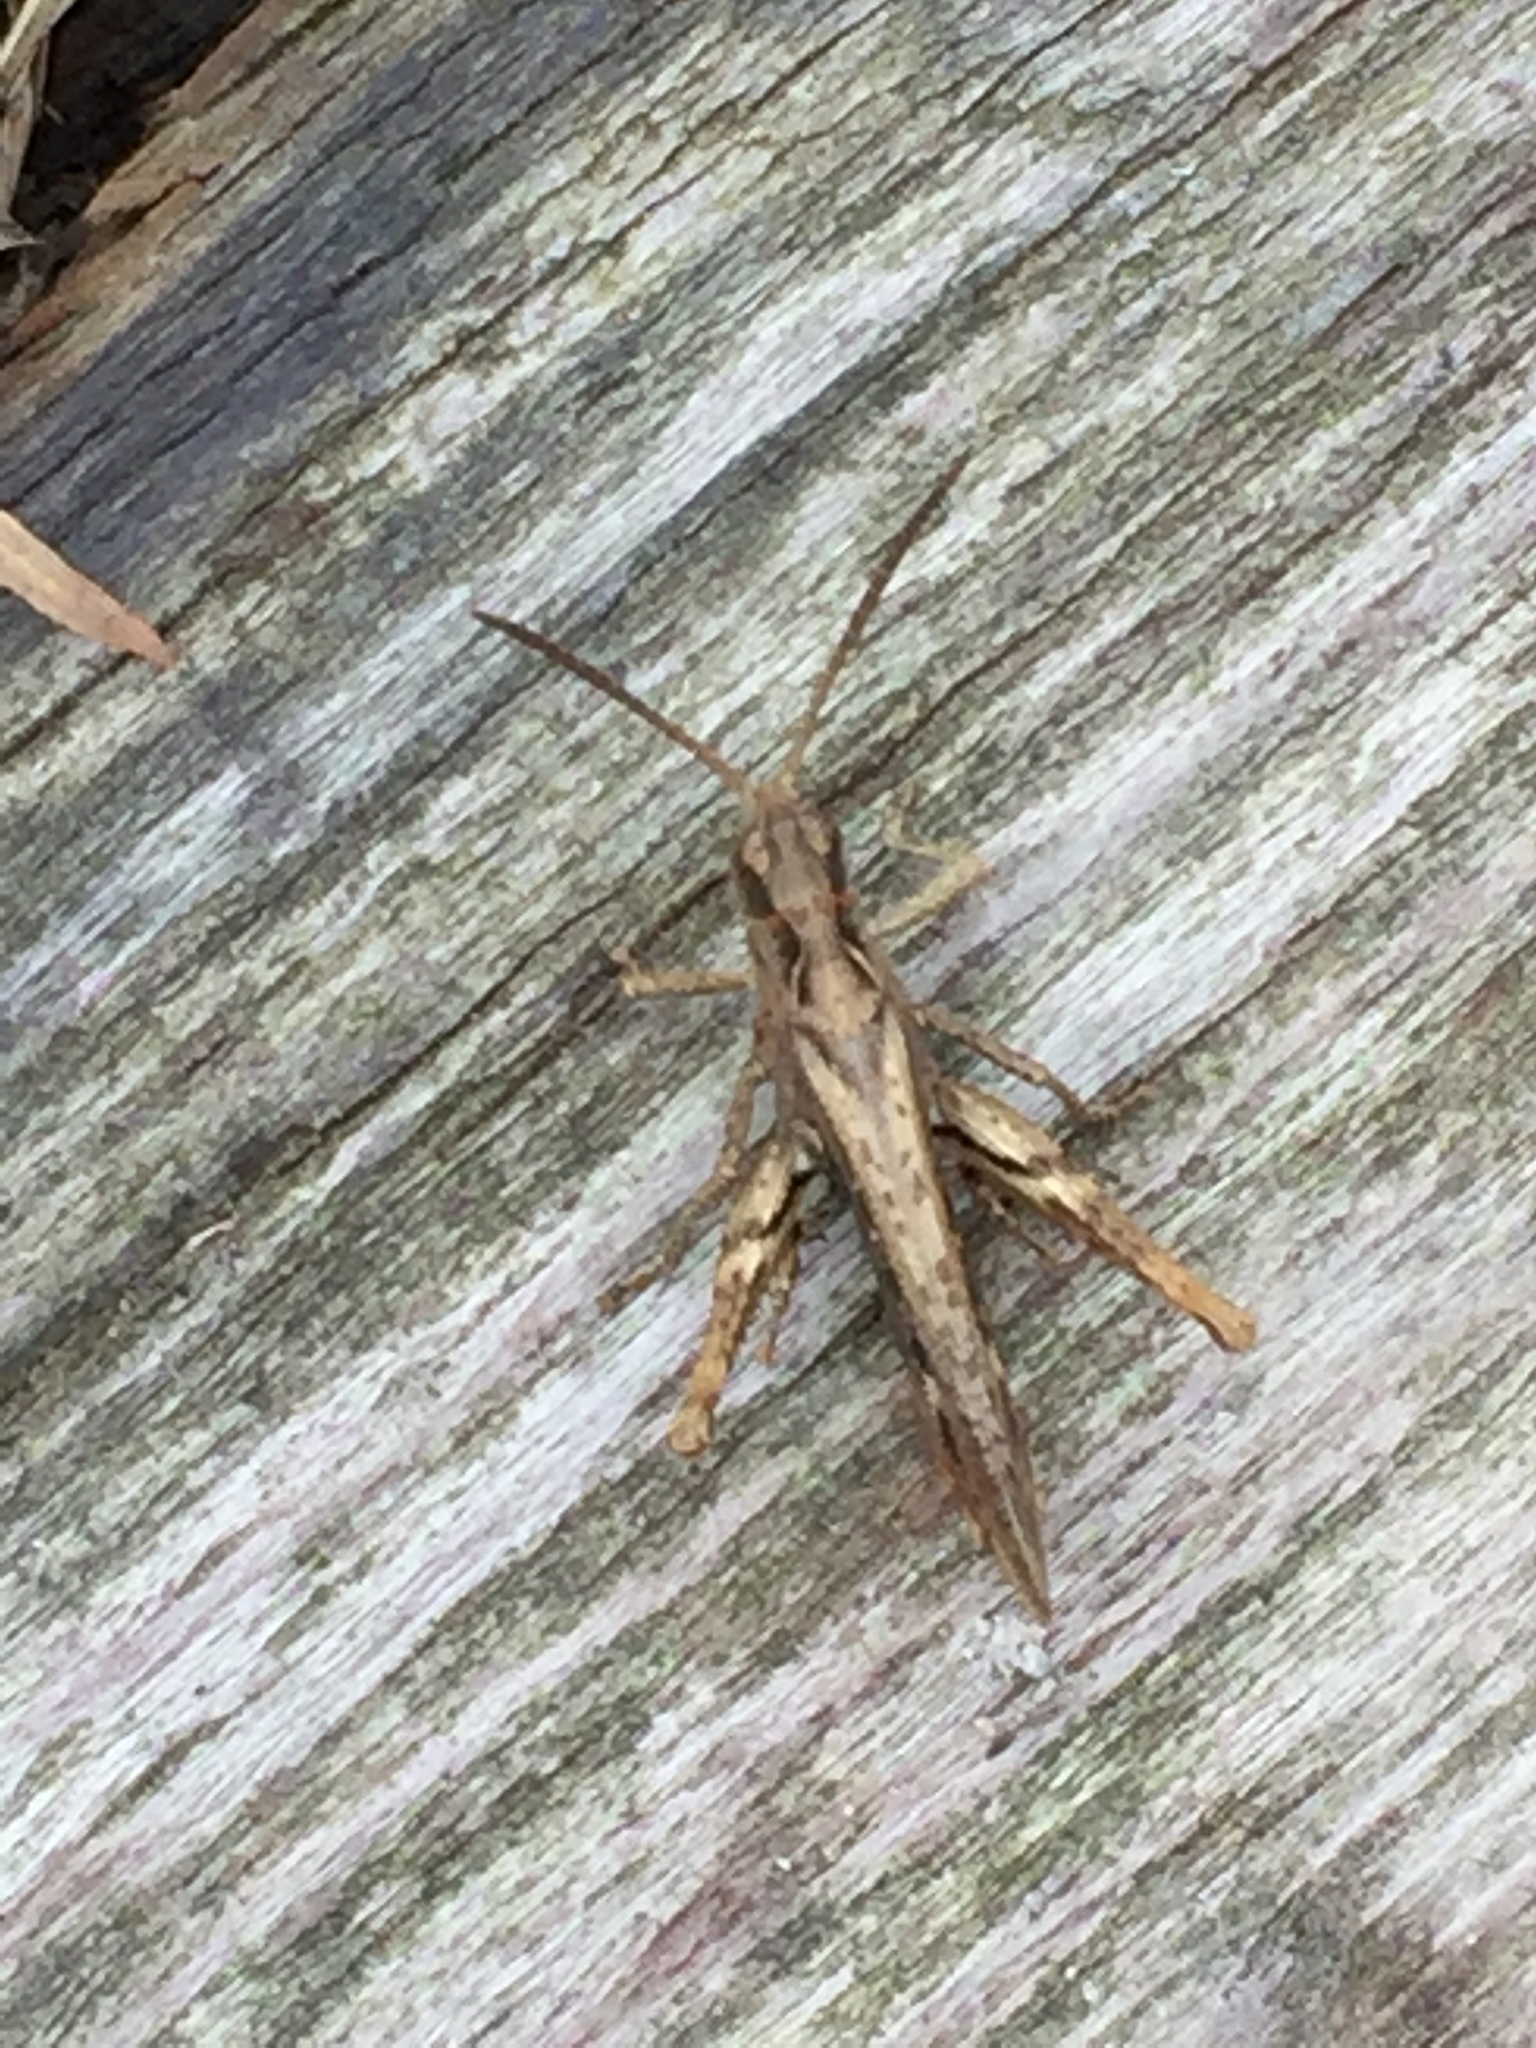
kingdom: Animalia
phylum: Arthropoda
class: Insecta
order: Orthoptera
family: Acrididae
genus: Chorthippus
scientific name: Chorthippus brunneus
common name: Field grasshopper
